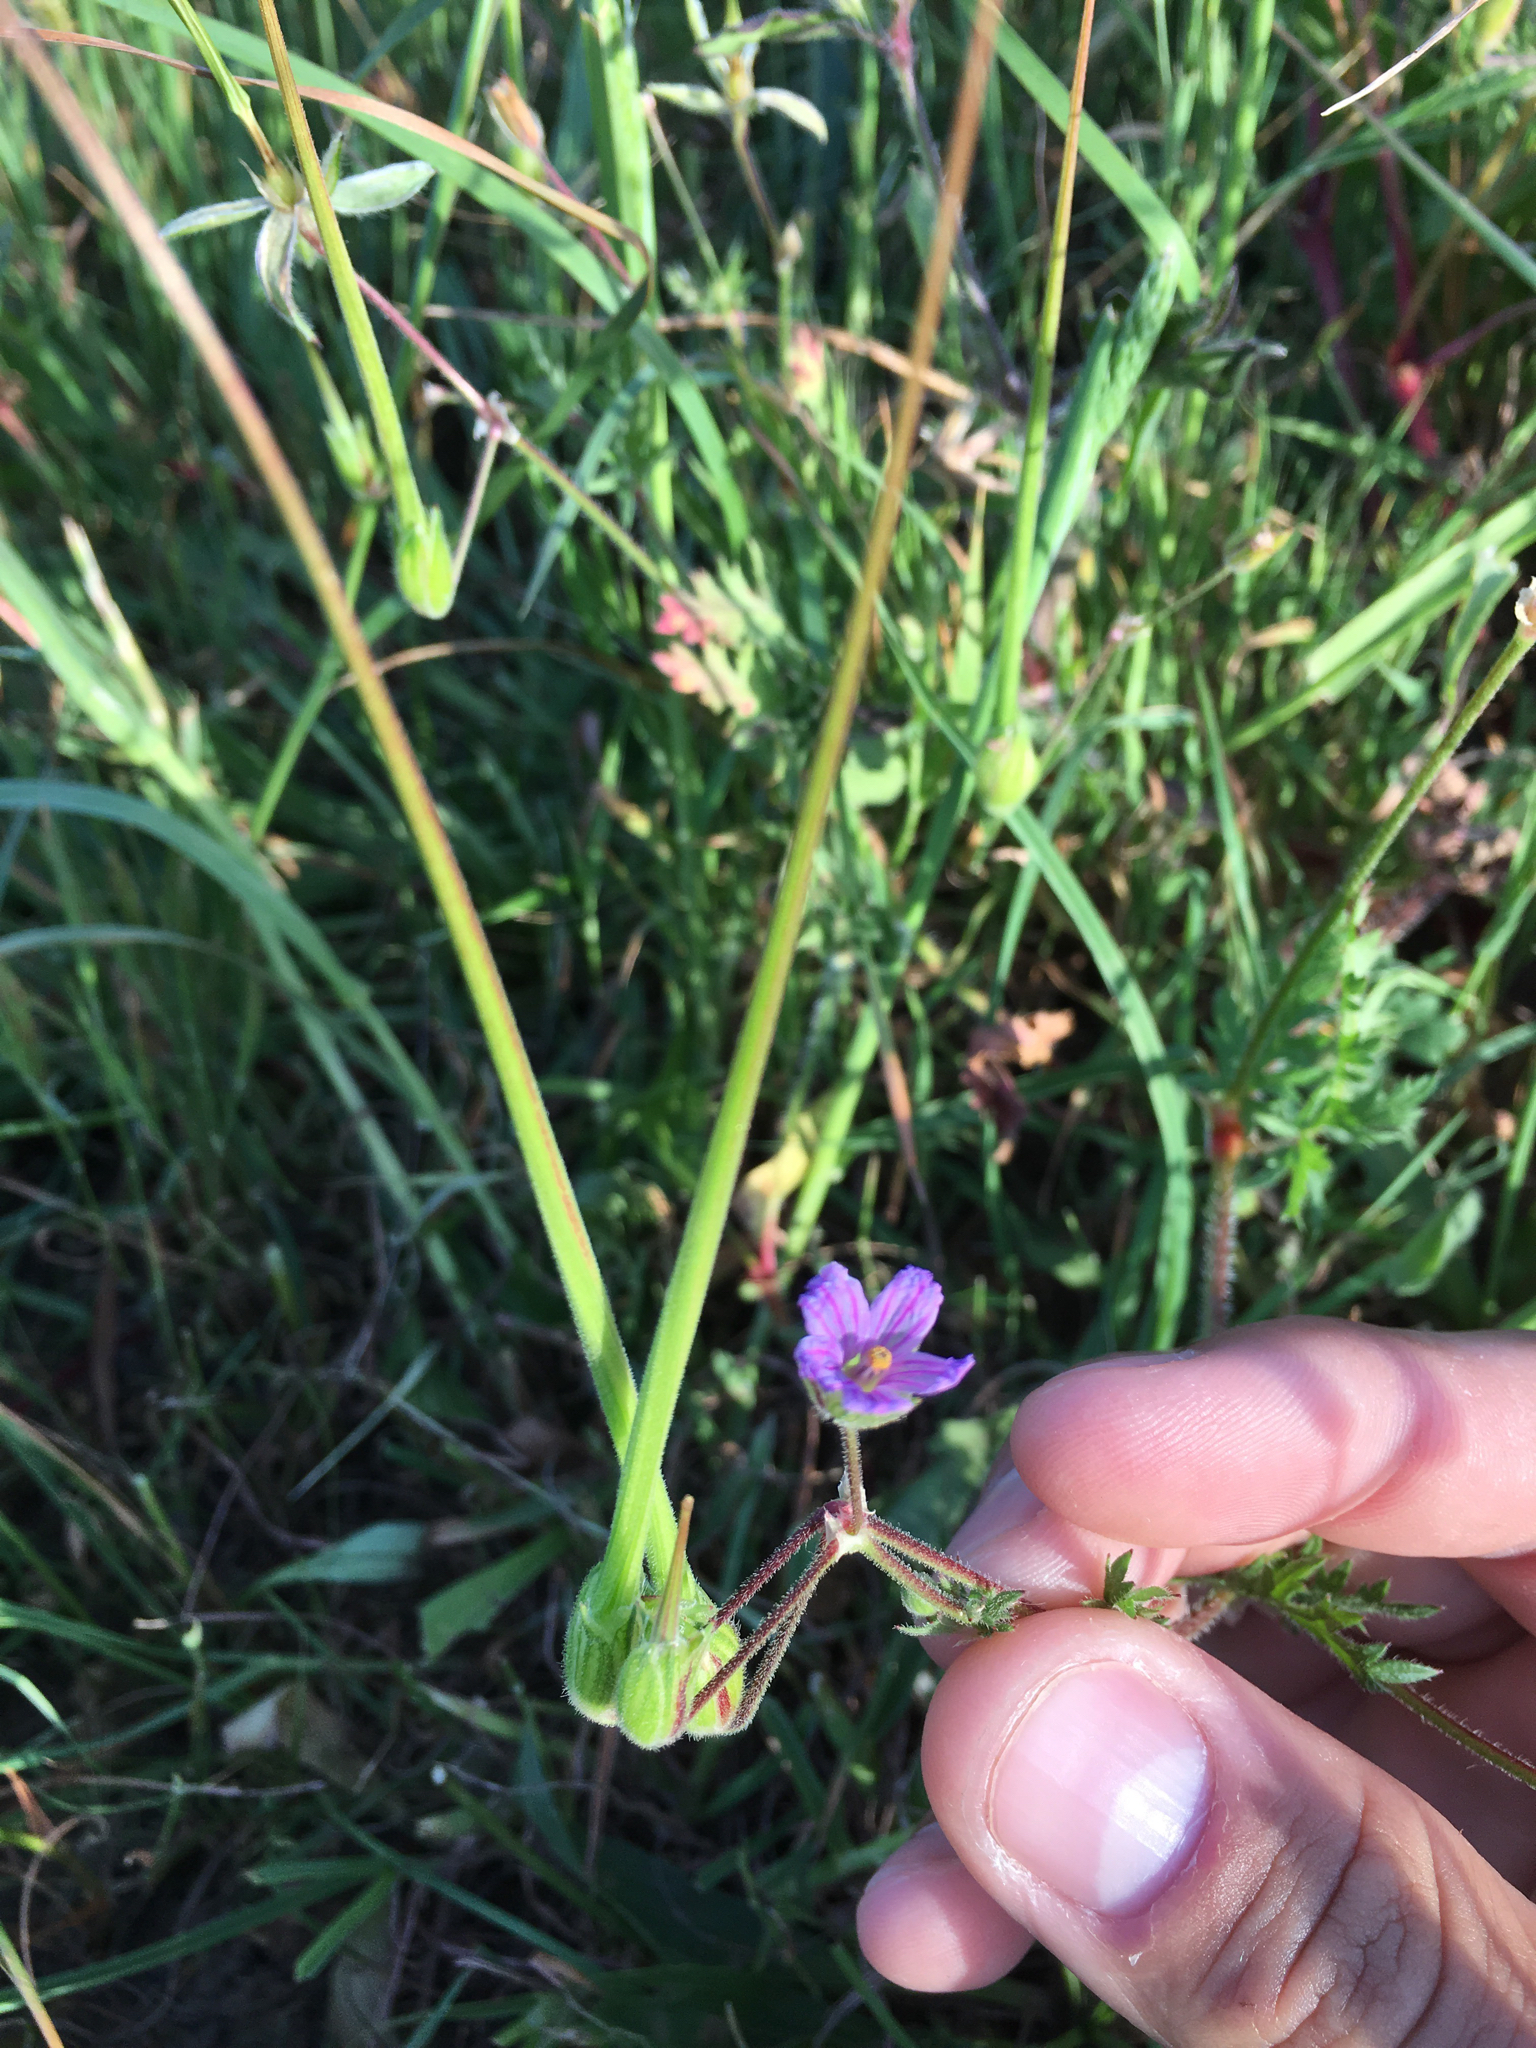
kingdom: Plantae
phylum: Tracheophyta
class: Magnoliopsida
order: Geraniales
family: Geraniaceae
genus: Erodium
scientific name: Erodium botrys
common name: Mediterranean stork's-bill
